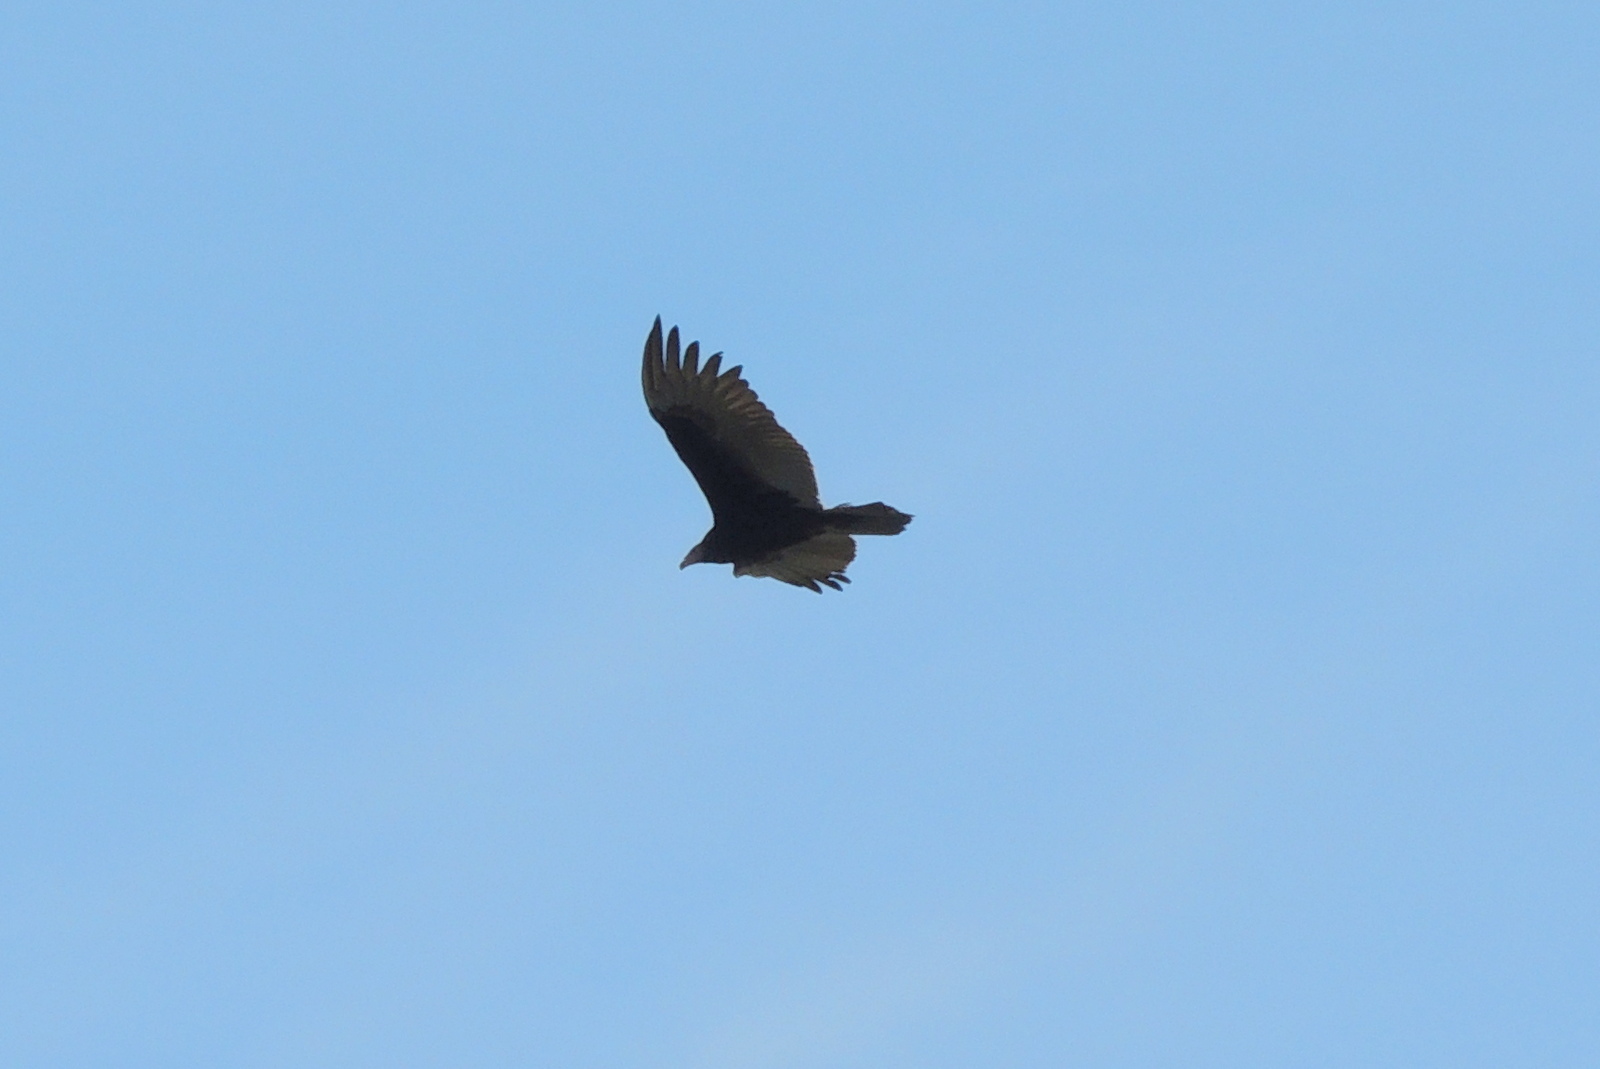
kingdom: Animalia
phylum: Chordata
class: Aves
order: Accipitriformes
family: Cathartidae
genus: Cathartes
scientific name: Cathartes aura
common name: Turkey vulture
